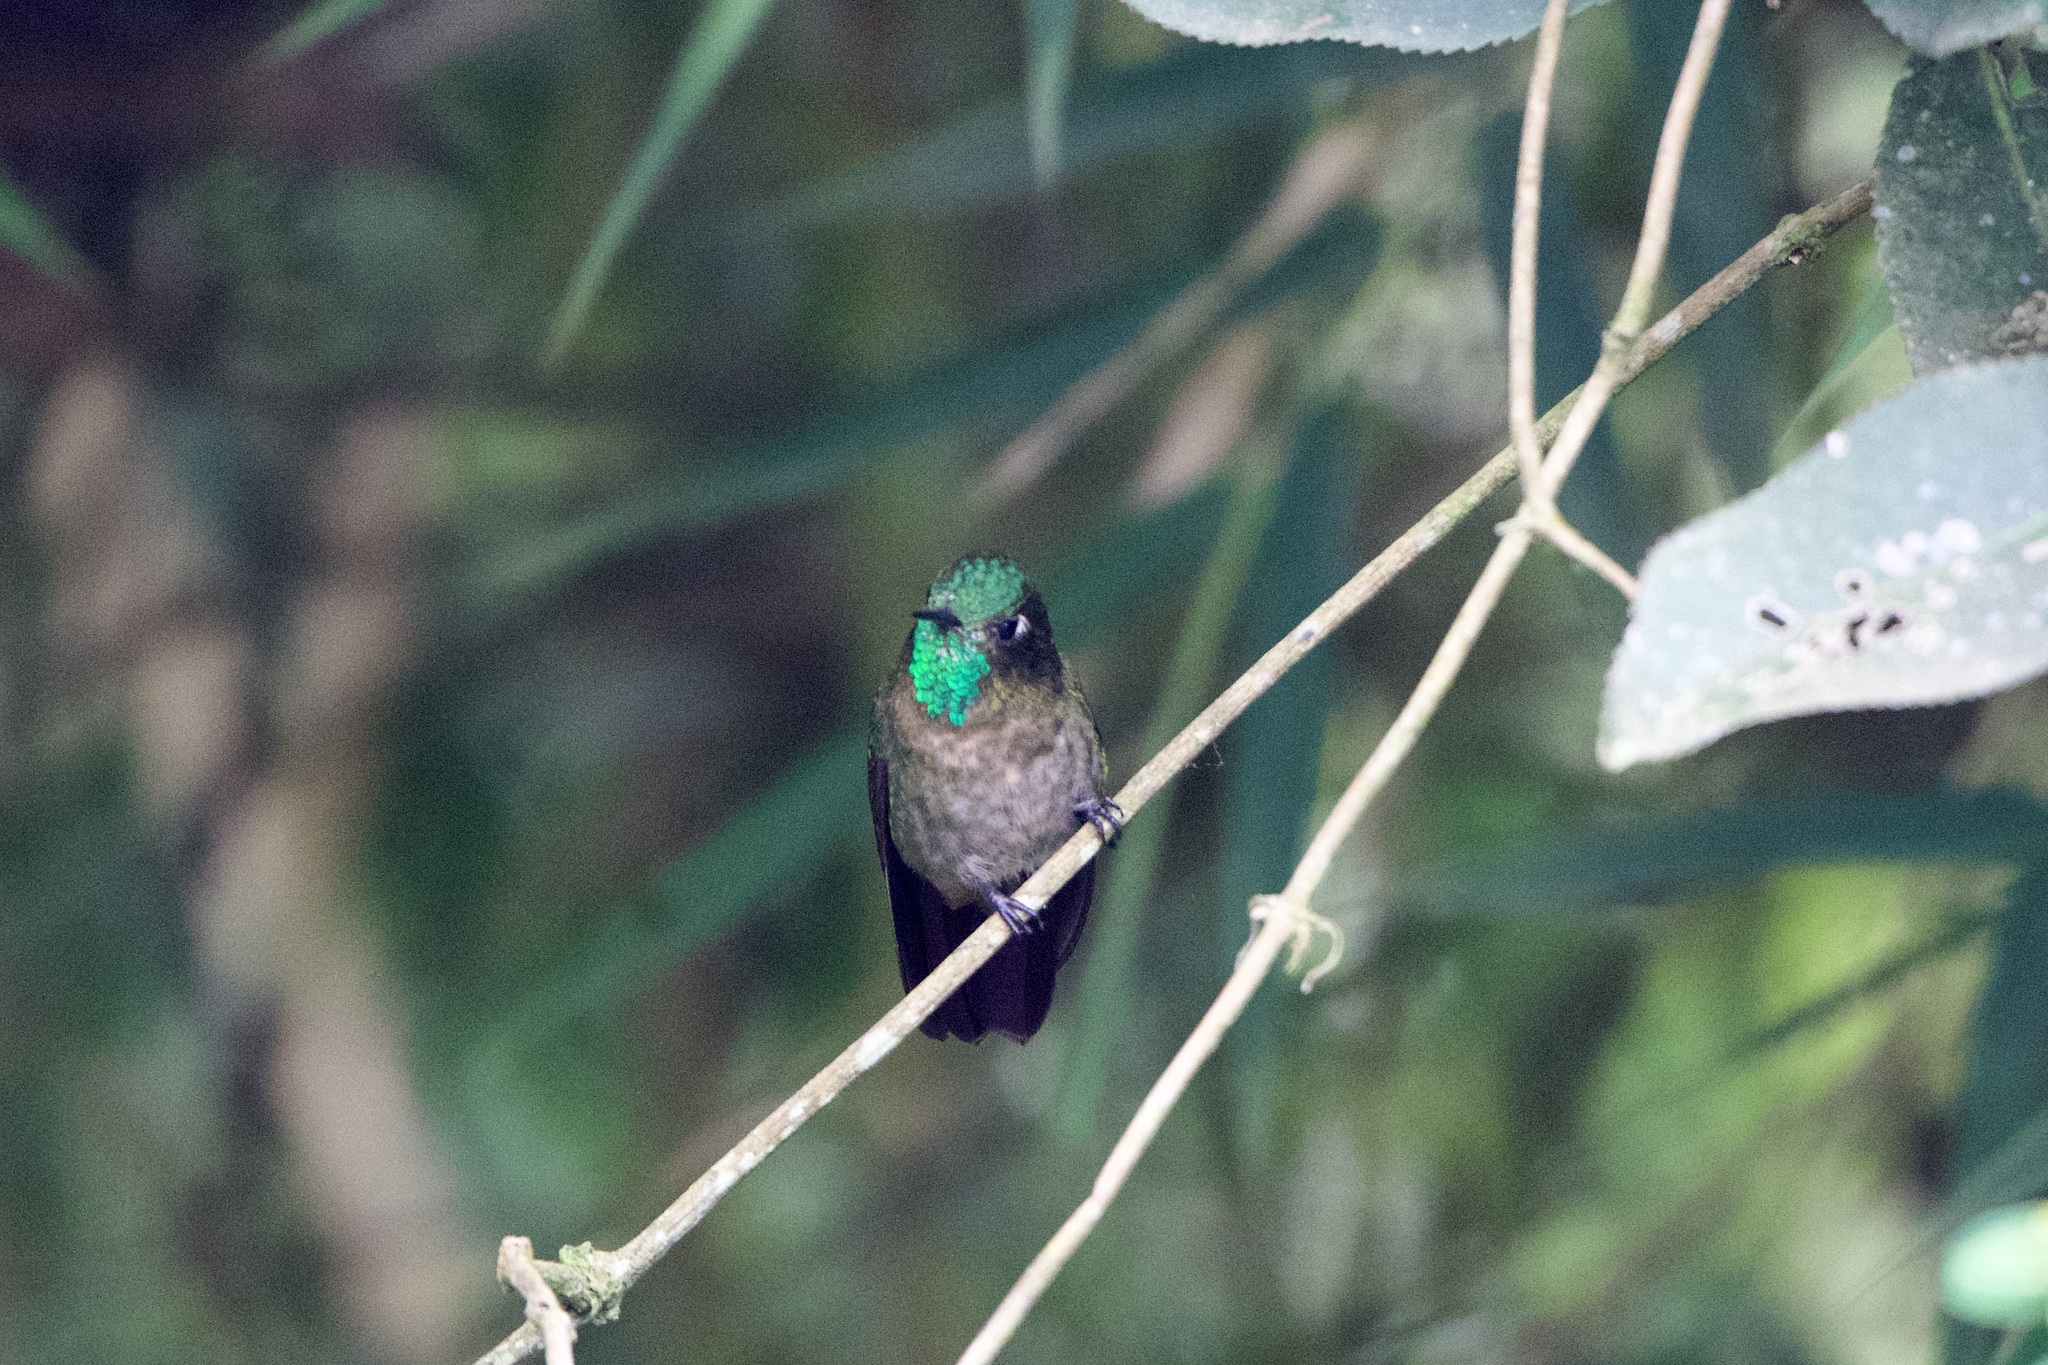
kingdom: Animalia
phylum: Chordata
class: Aves
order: Apodiformes
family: Trochilidae
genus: Metallura
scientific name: Metallura tyrianthina
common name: Tyrian metaltail
